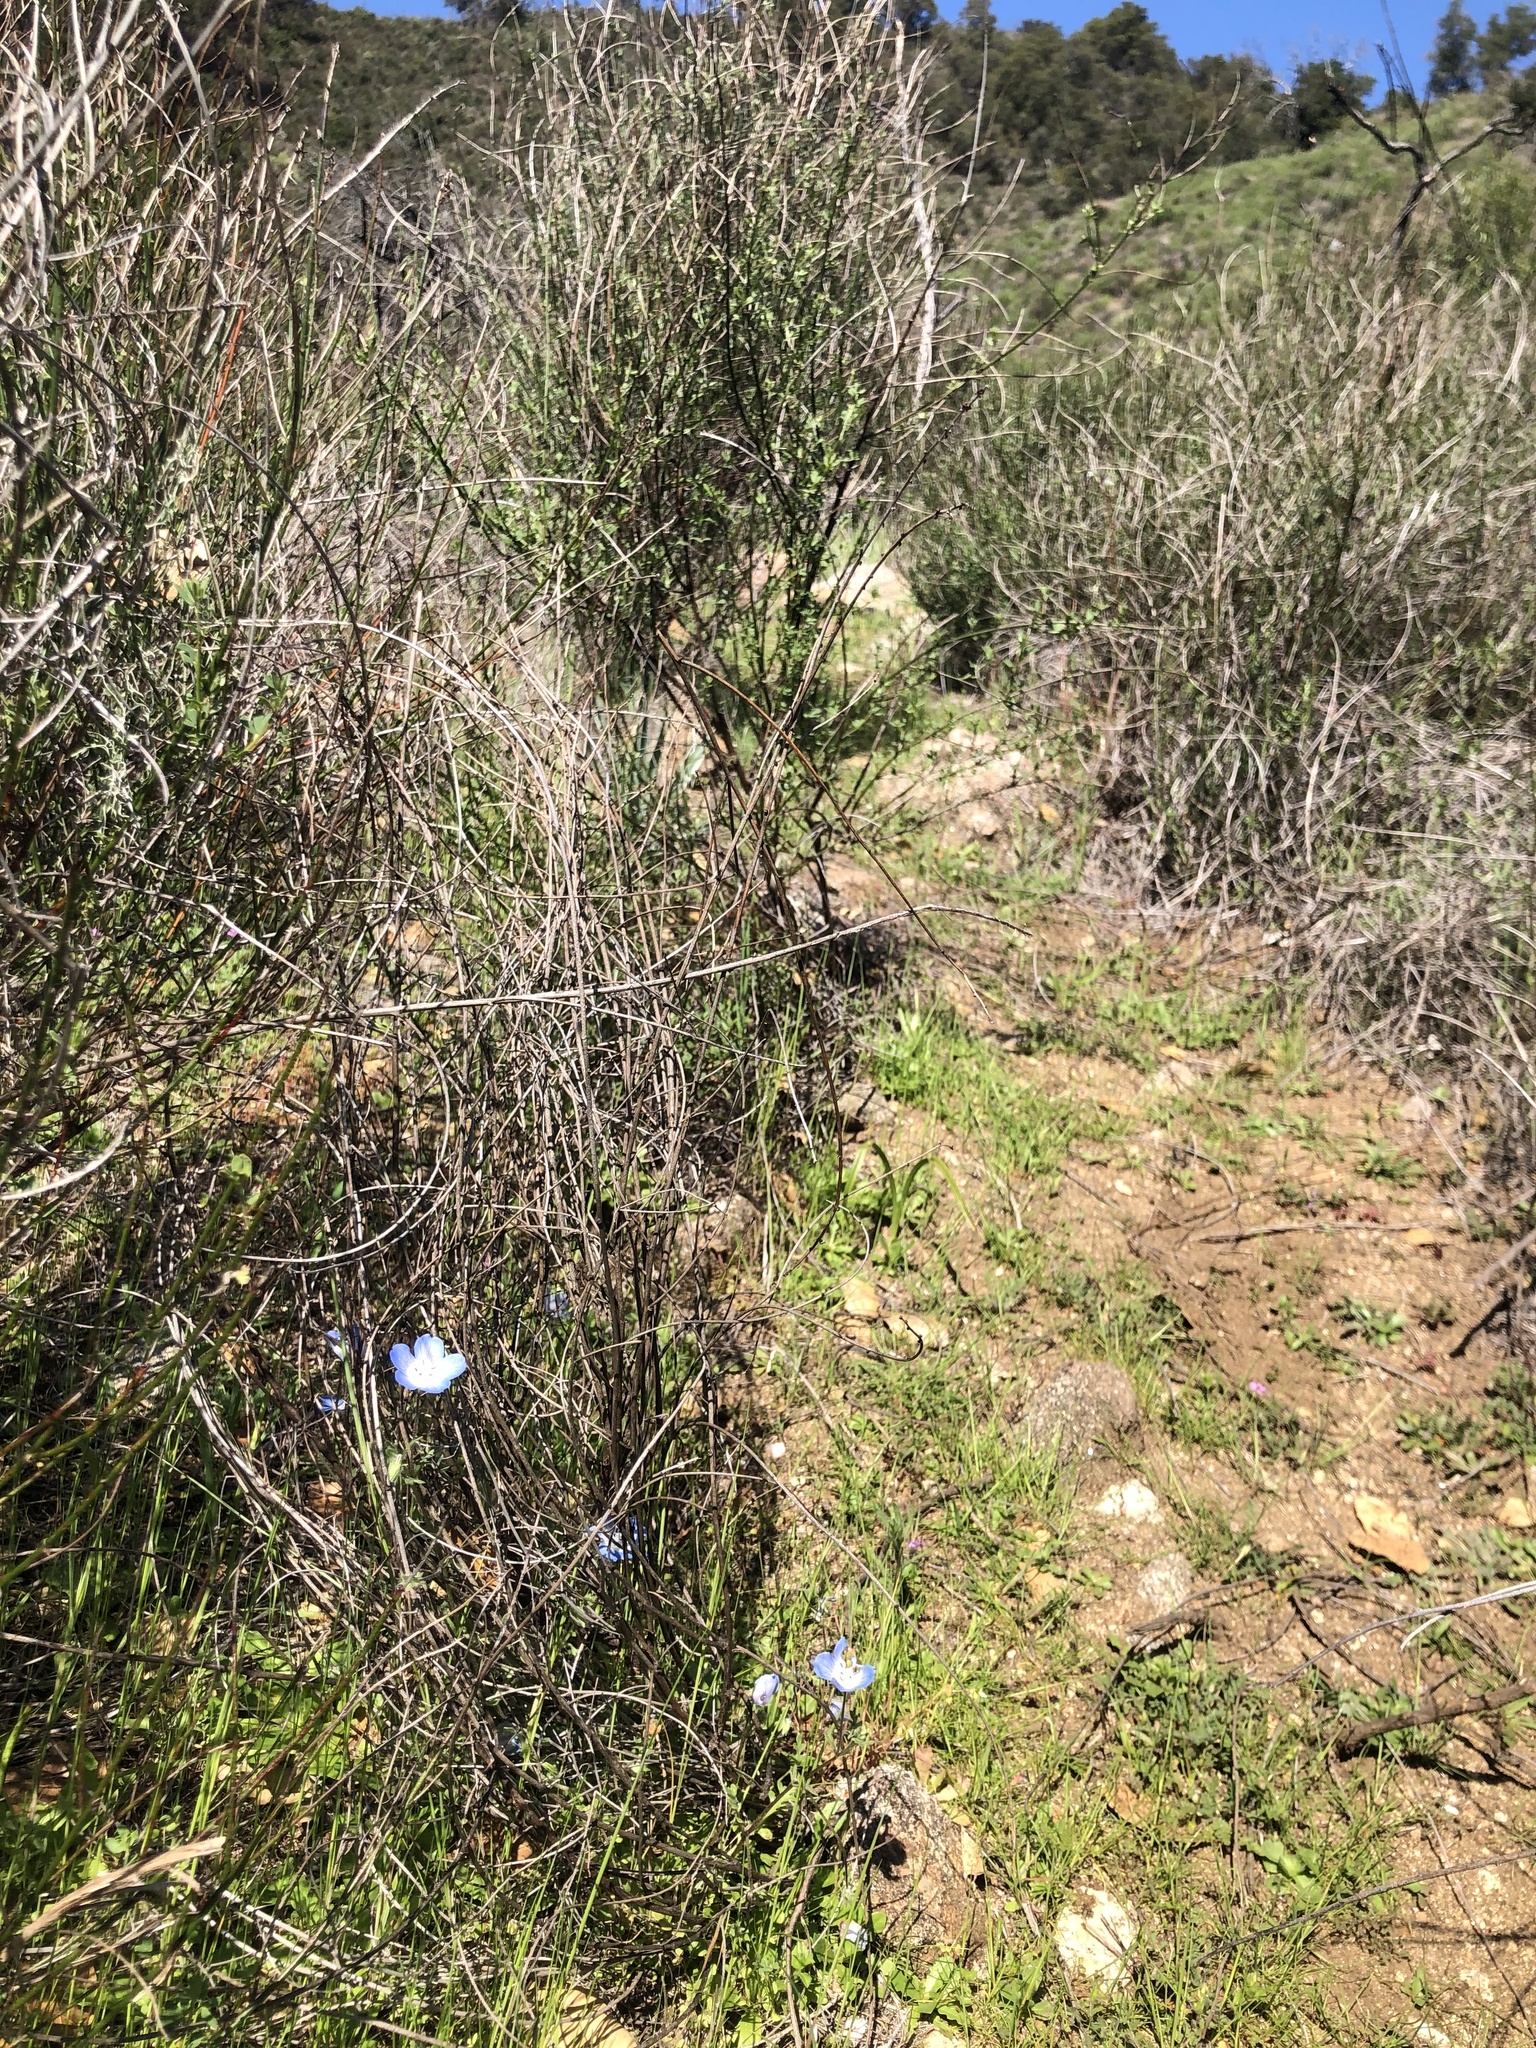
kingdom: Plantae
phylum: Tracheophyta
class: Magnoliopsida
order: Boraginales
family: Hydrophyllaceae
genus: Nemophila
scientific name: Nemophila menziesii
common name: Baby's-blue-eyes
